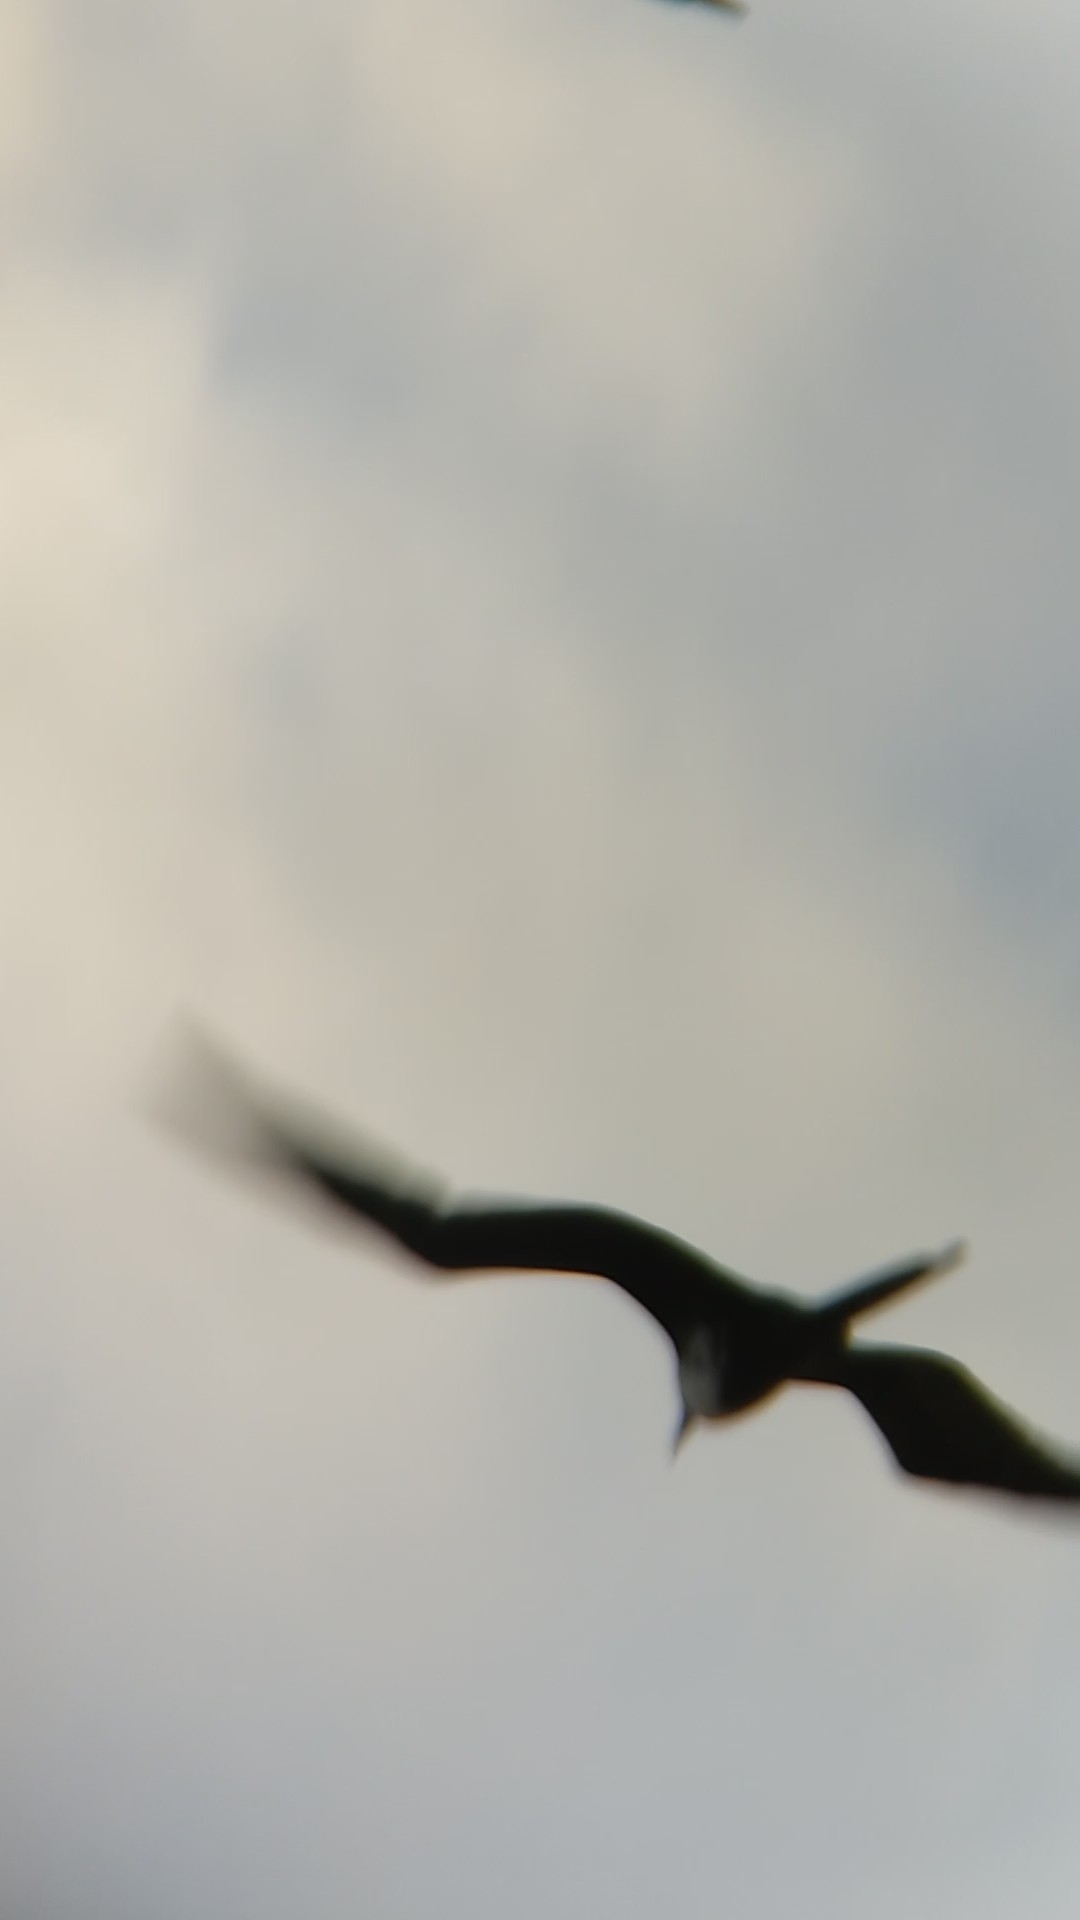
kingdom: Animalia
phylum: Chordata
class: Aves
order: Suliformes
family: Fregatidae
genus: Fregata
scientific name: Fregata magnificens
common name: Magnificent frigatebird
